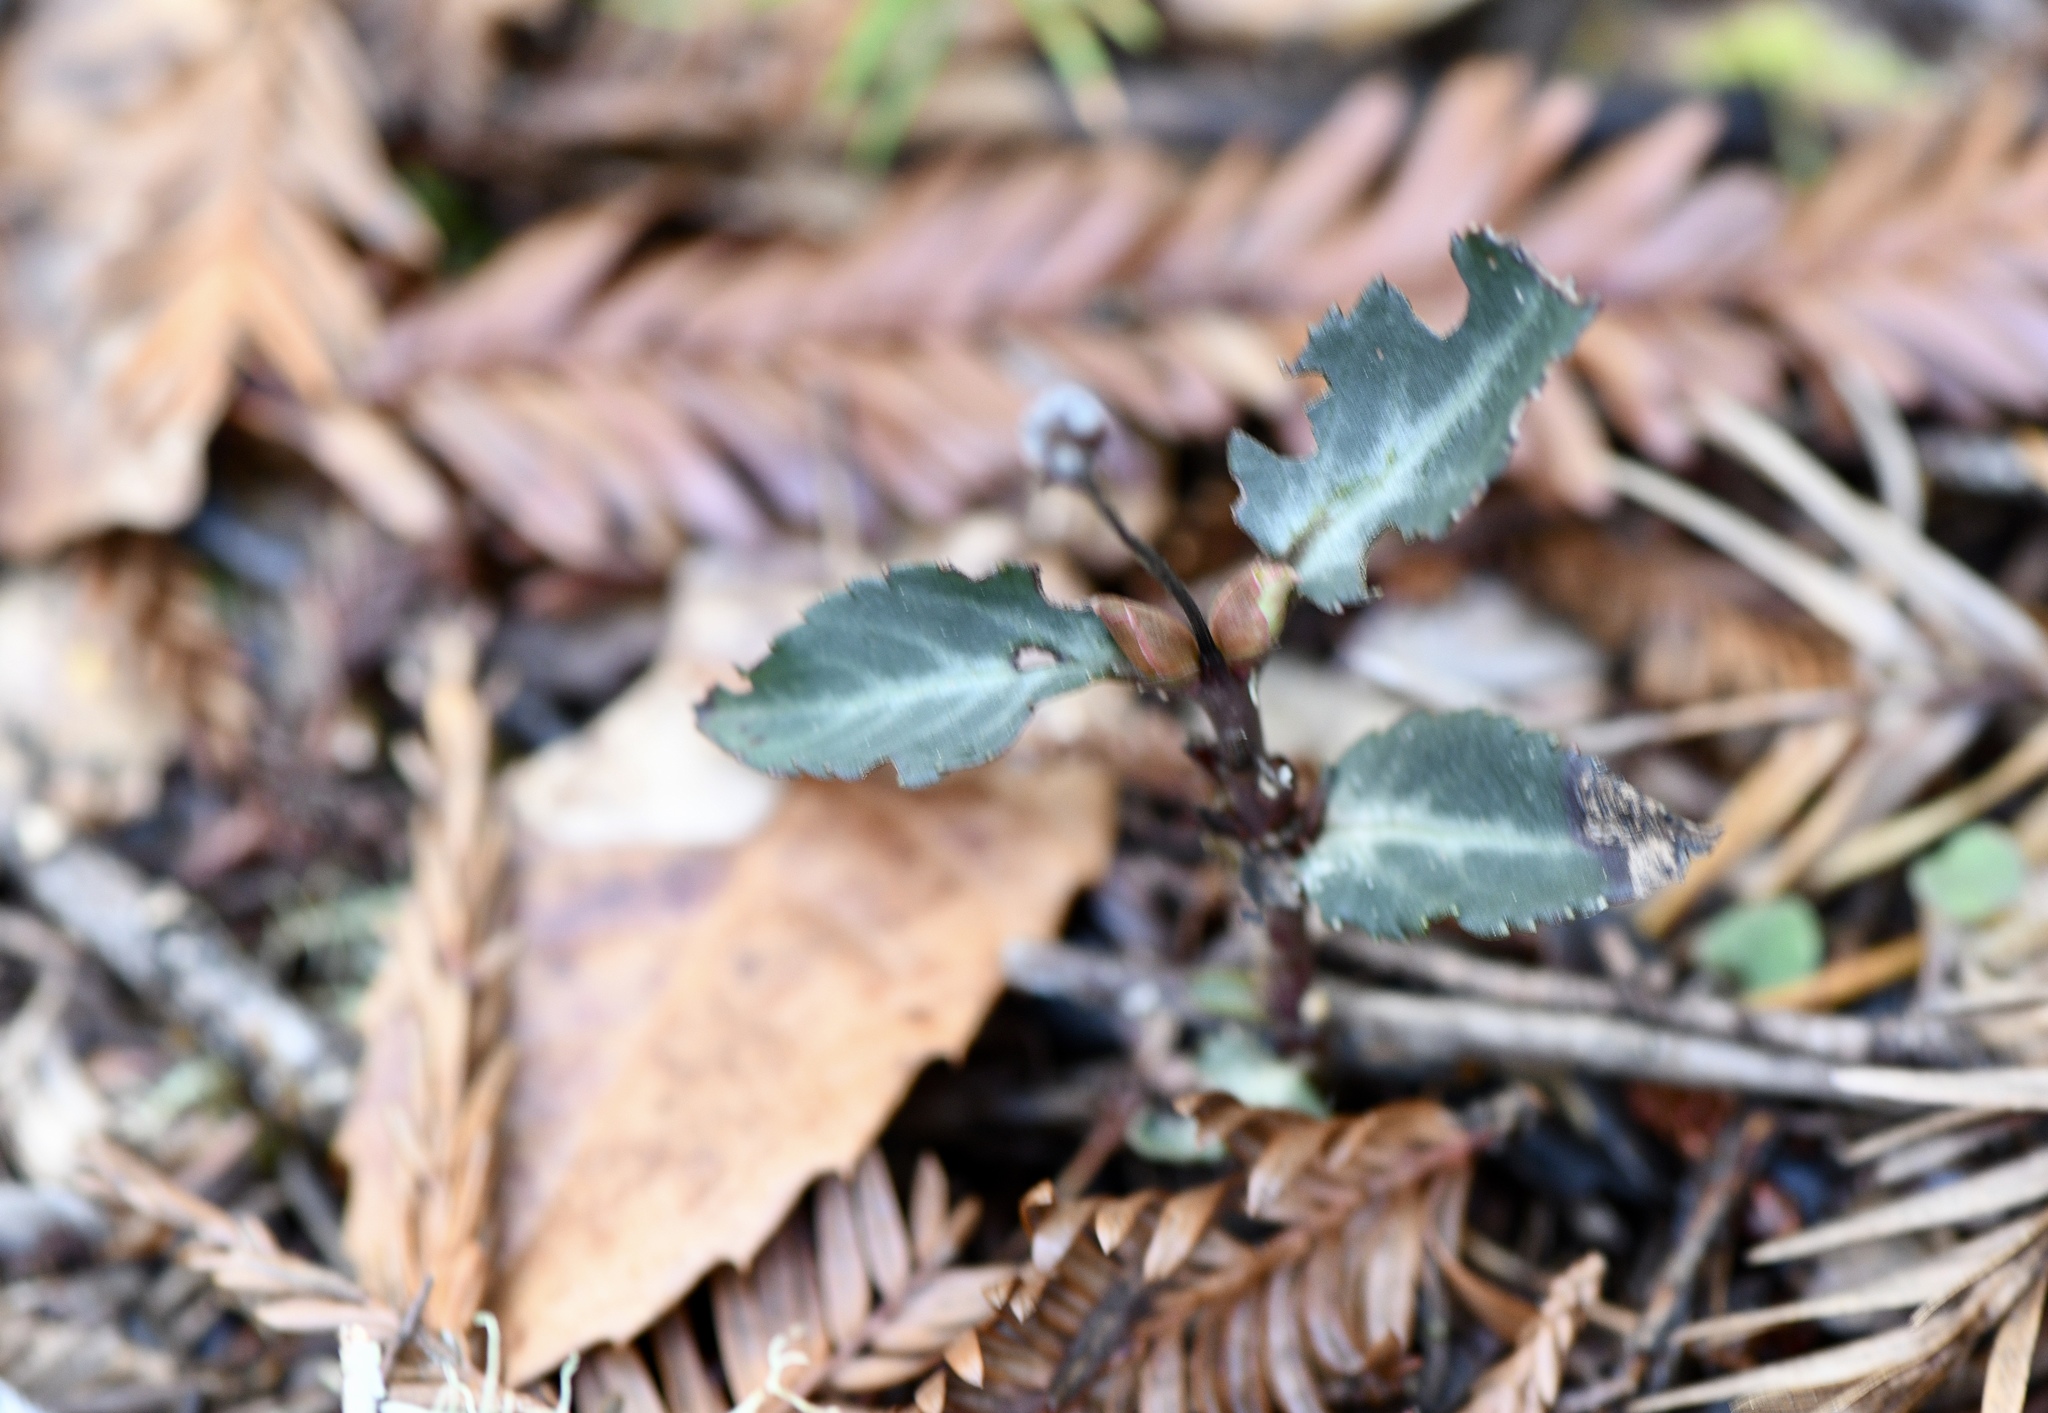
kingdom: Plantae
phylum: Tracheophyta
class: Magnoliopsida
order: Ericales
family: Ericaceae
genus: Chimaphila
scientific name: Chimaphila menziesii
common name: Menzies' pipsissewa
